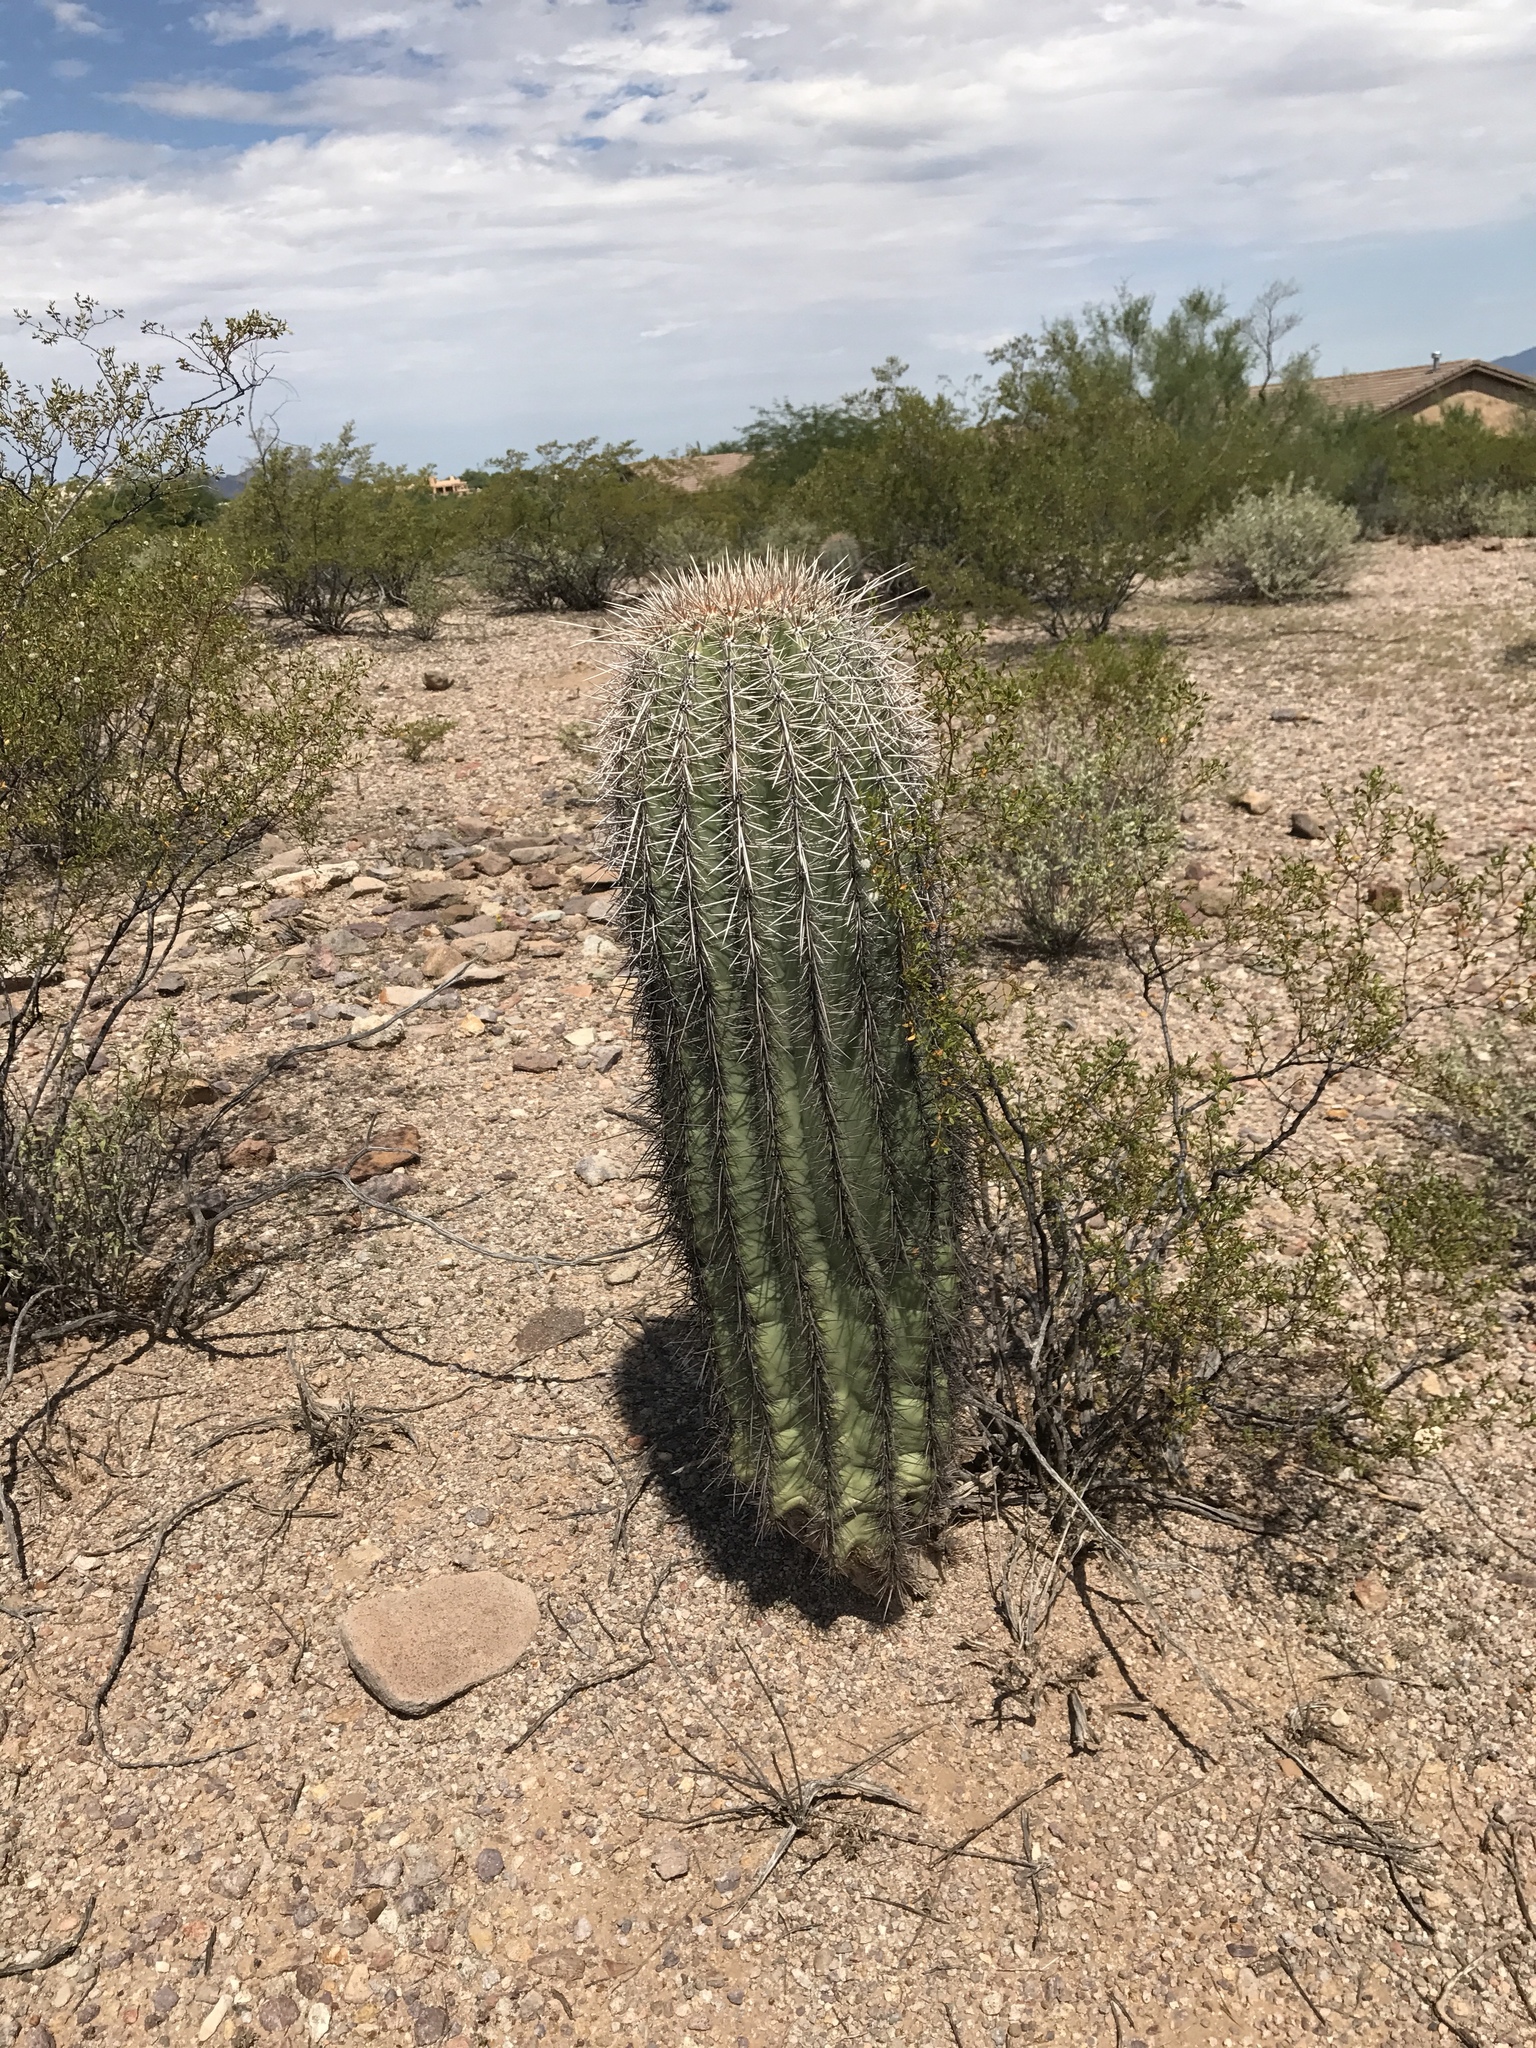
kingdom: Plantae
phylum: Tracheophyta
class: Magnoliopsida
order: Caryophyllales
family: Cactaceae
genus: Carnegiea
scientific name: Carnegiea gigantea
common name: Saguaro
